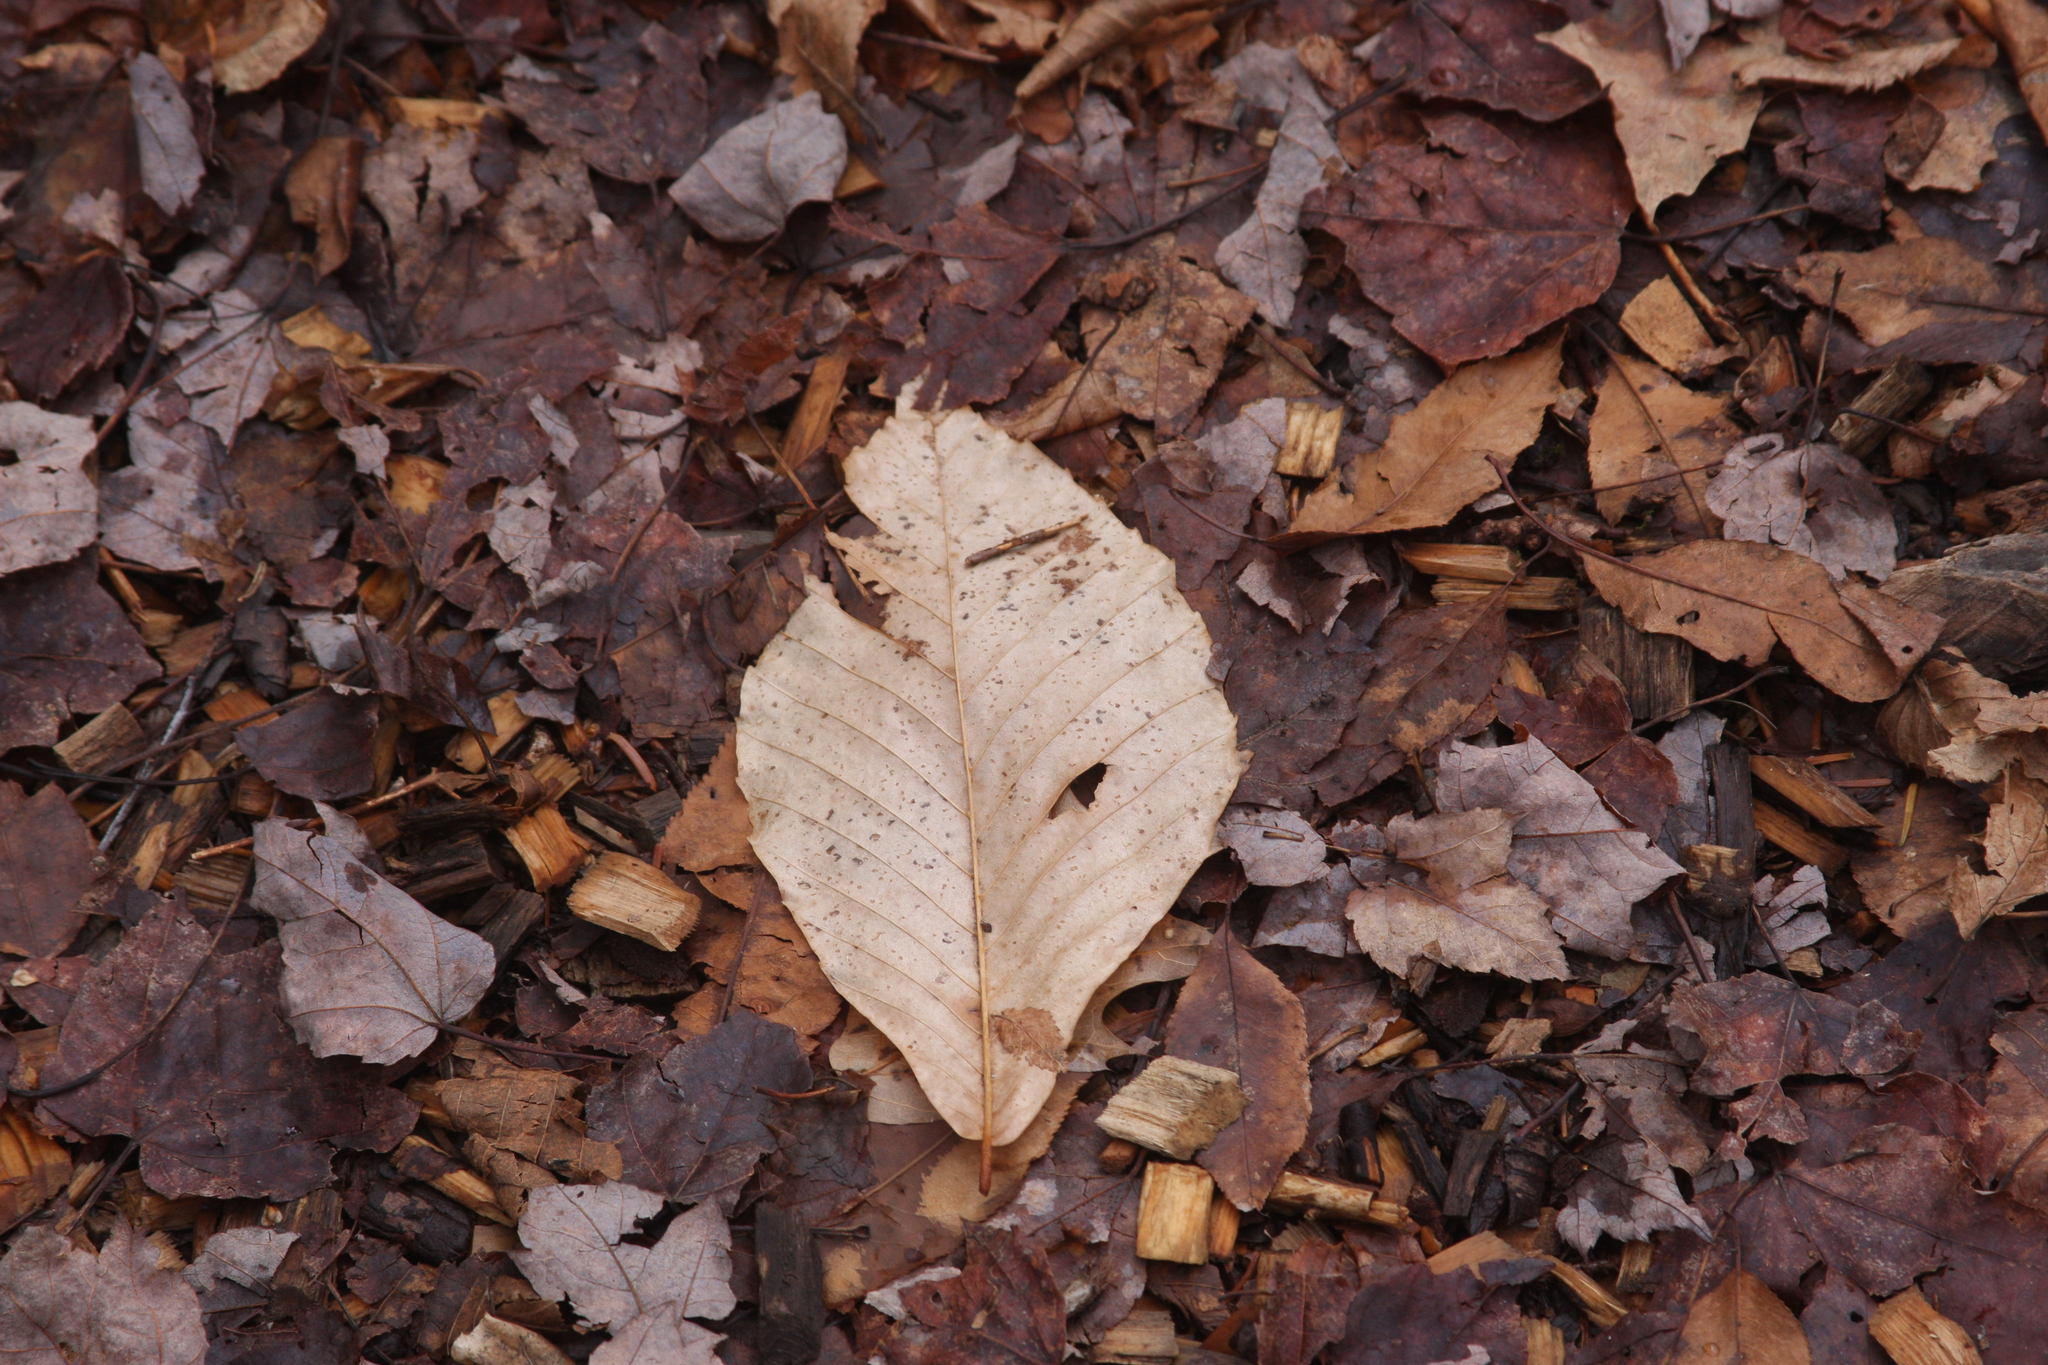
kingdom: Plantae
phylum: Tracheophyta
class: Magnoliopsida
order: Fagales
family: Fagaceae
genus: Fagus
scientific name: Fagus grandifolia
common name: American beech
